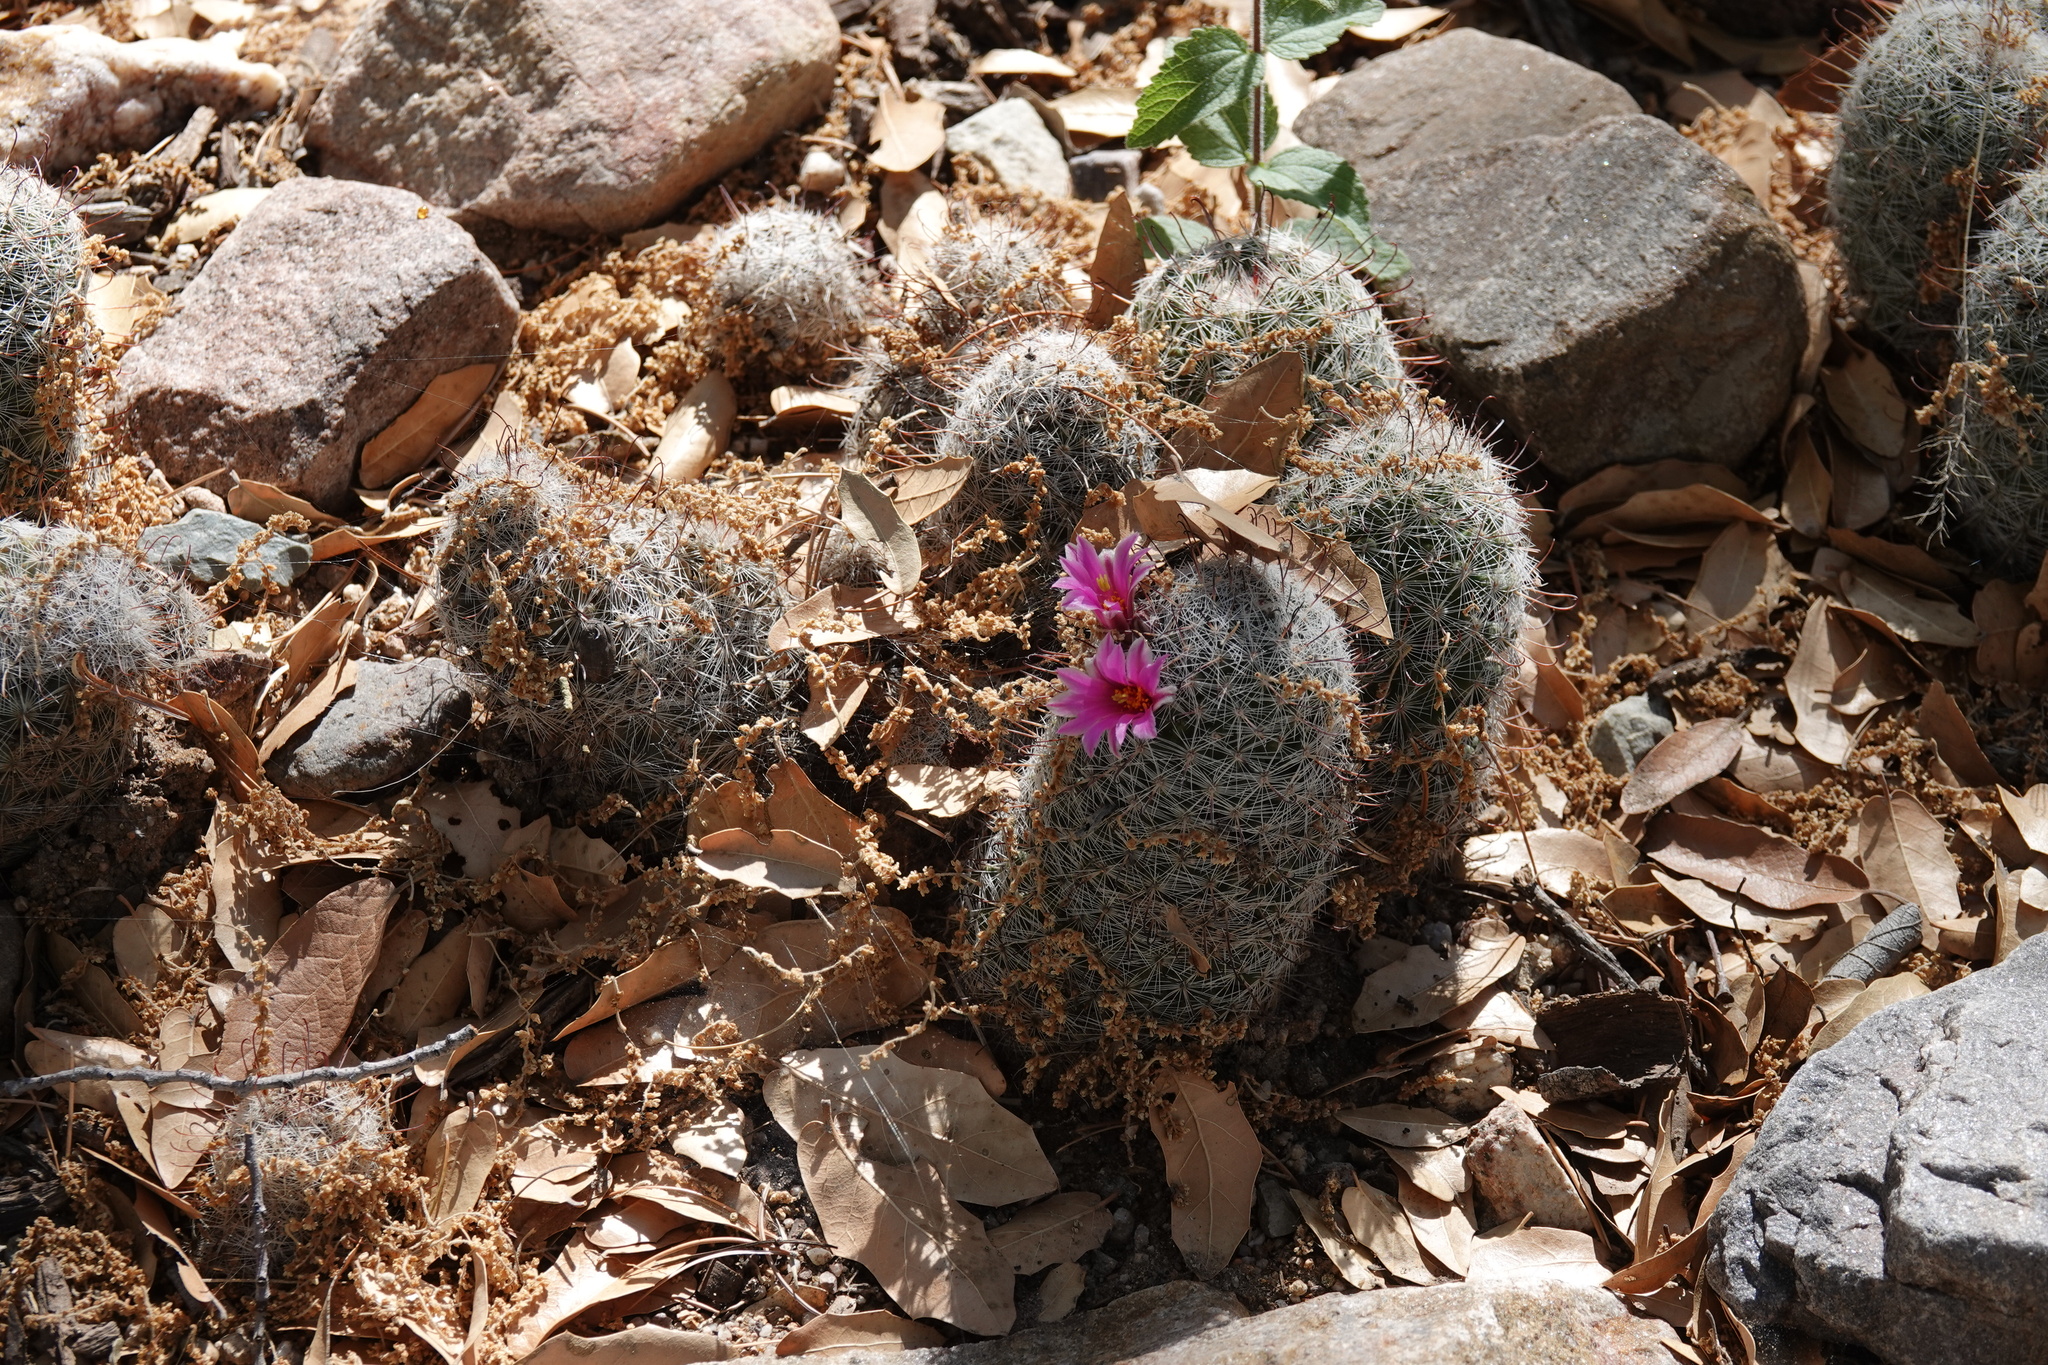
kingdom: Plantae
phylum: Tracheophyta
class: Magnoliopsida
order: Caryophyllales
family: Cactaceae
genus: Cochemiea
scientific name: Cochemiea grahamii
